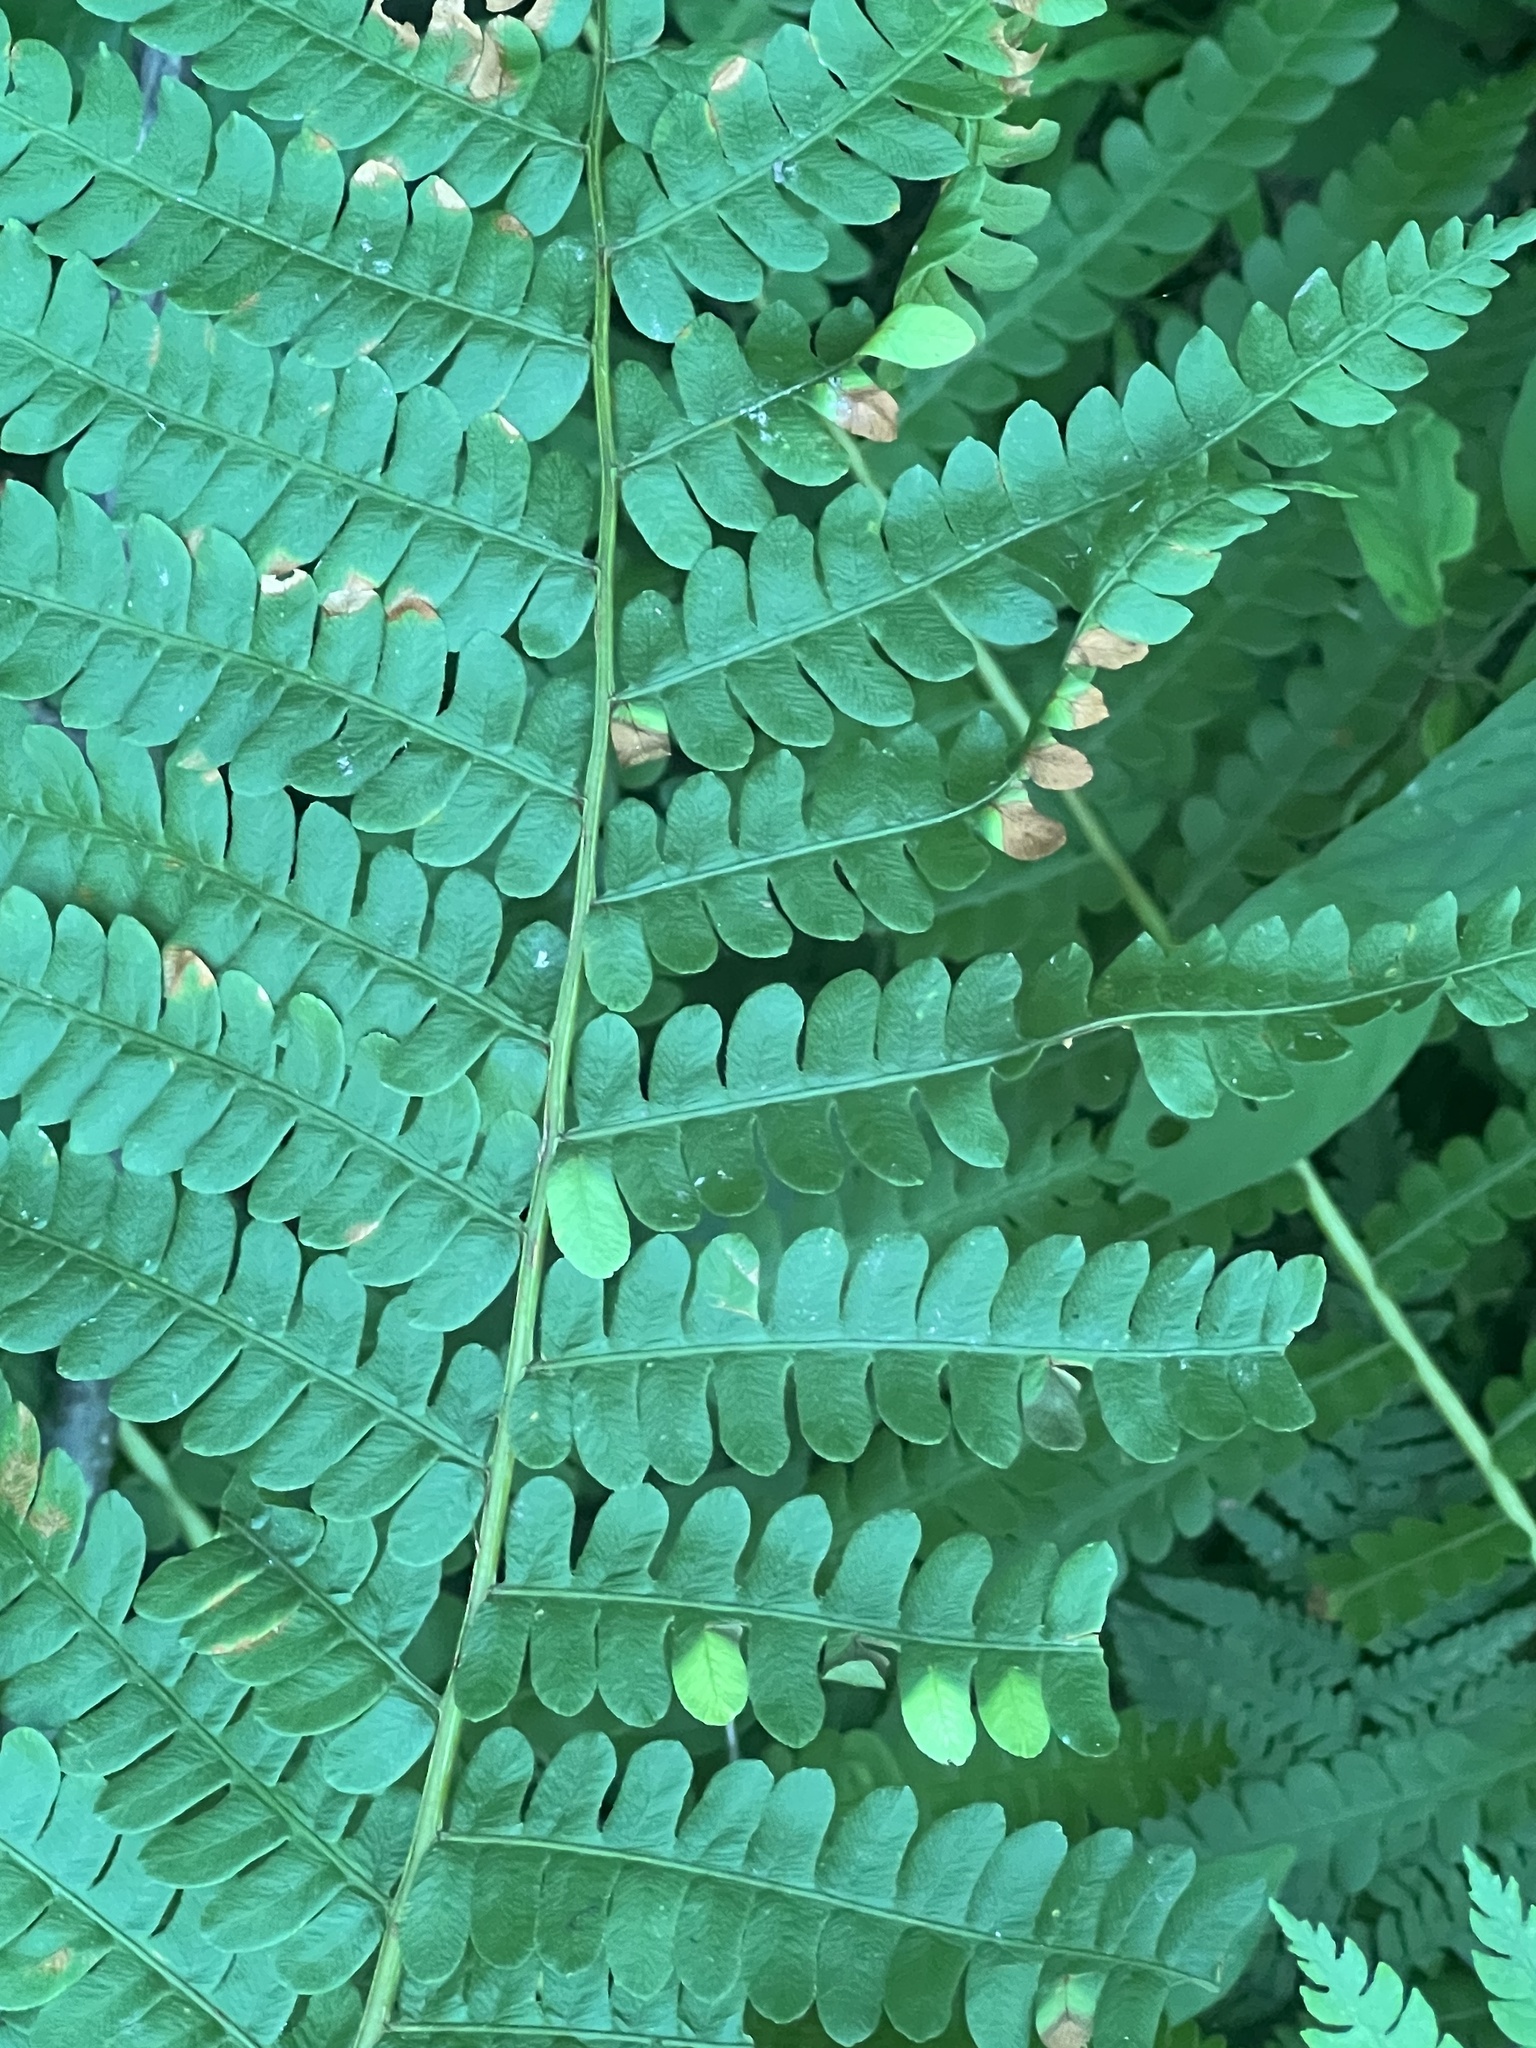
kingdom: Fungi
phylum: Basidiomycota
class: Mixiomycetes
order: Mixiales
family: Mixiaceae
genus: Mixia
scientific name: Mixia osmundae
